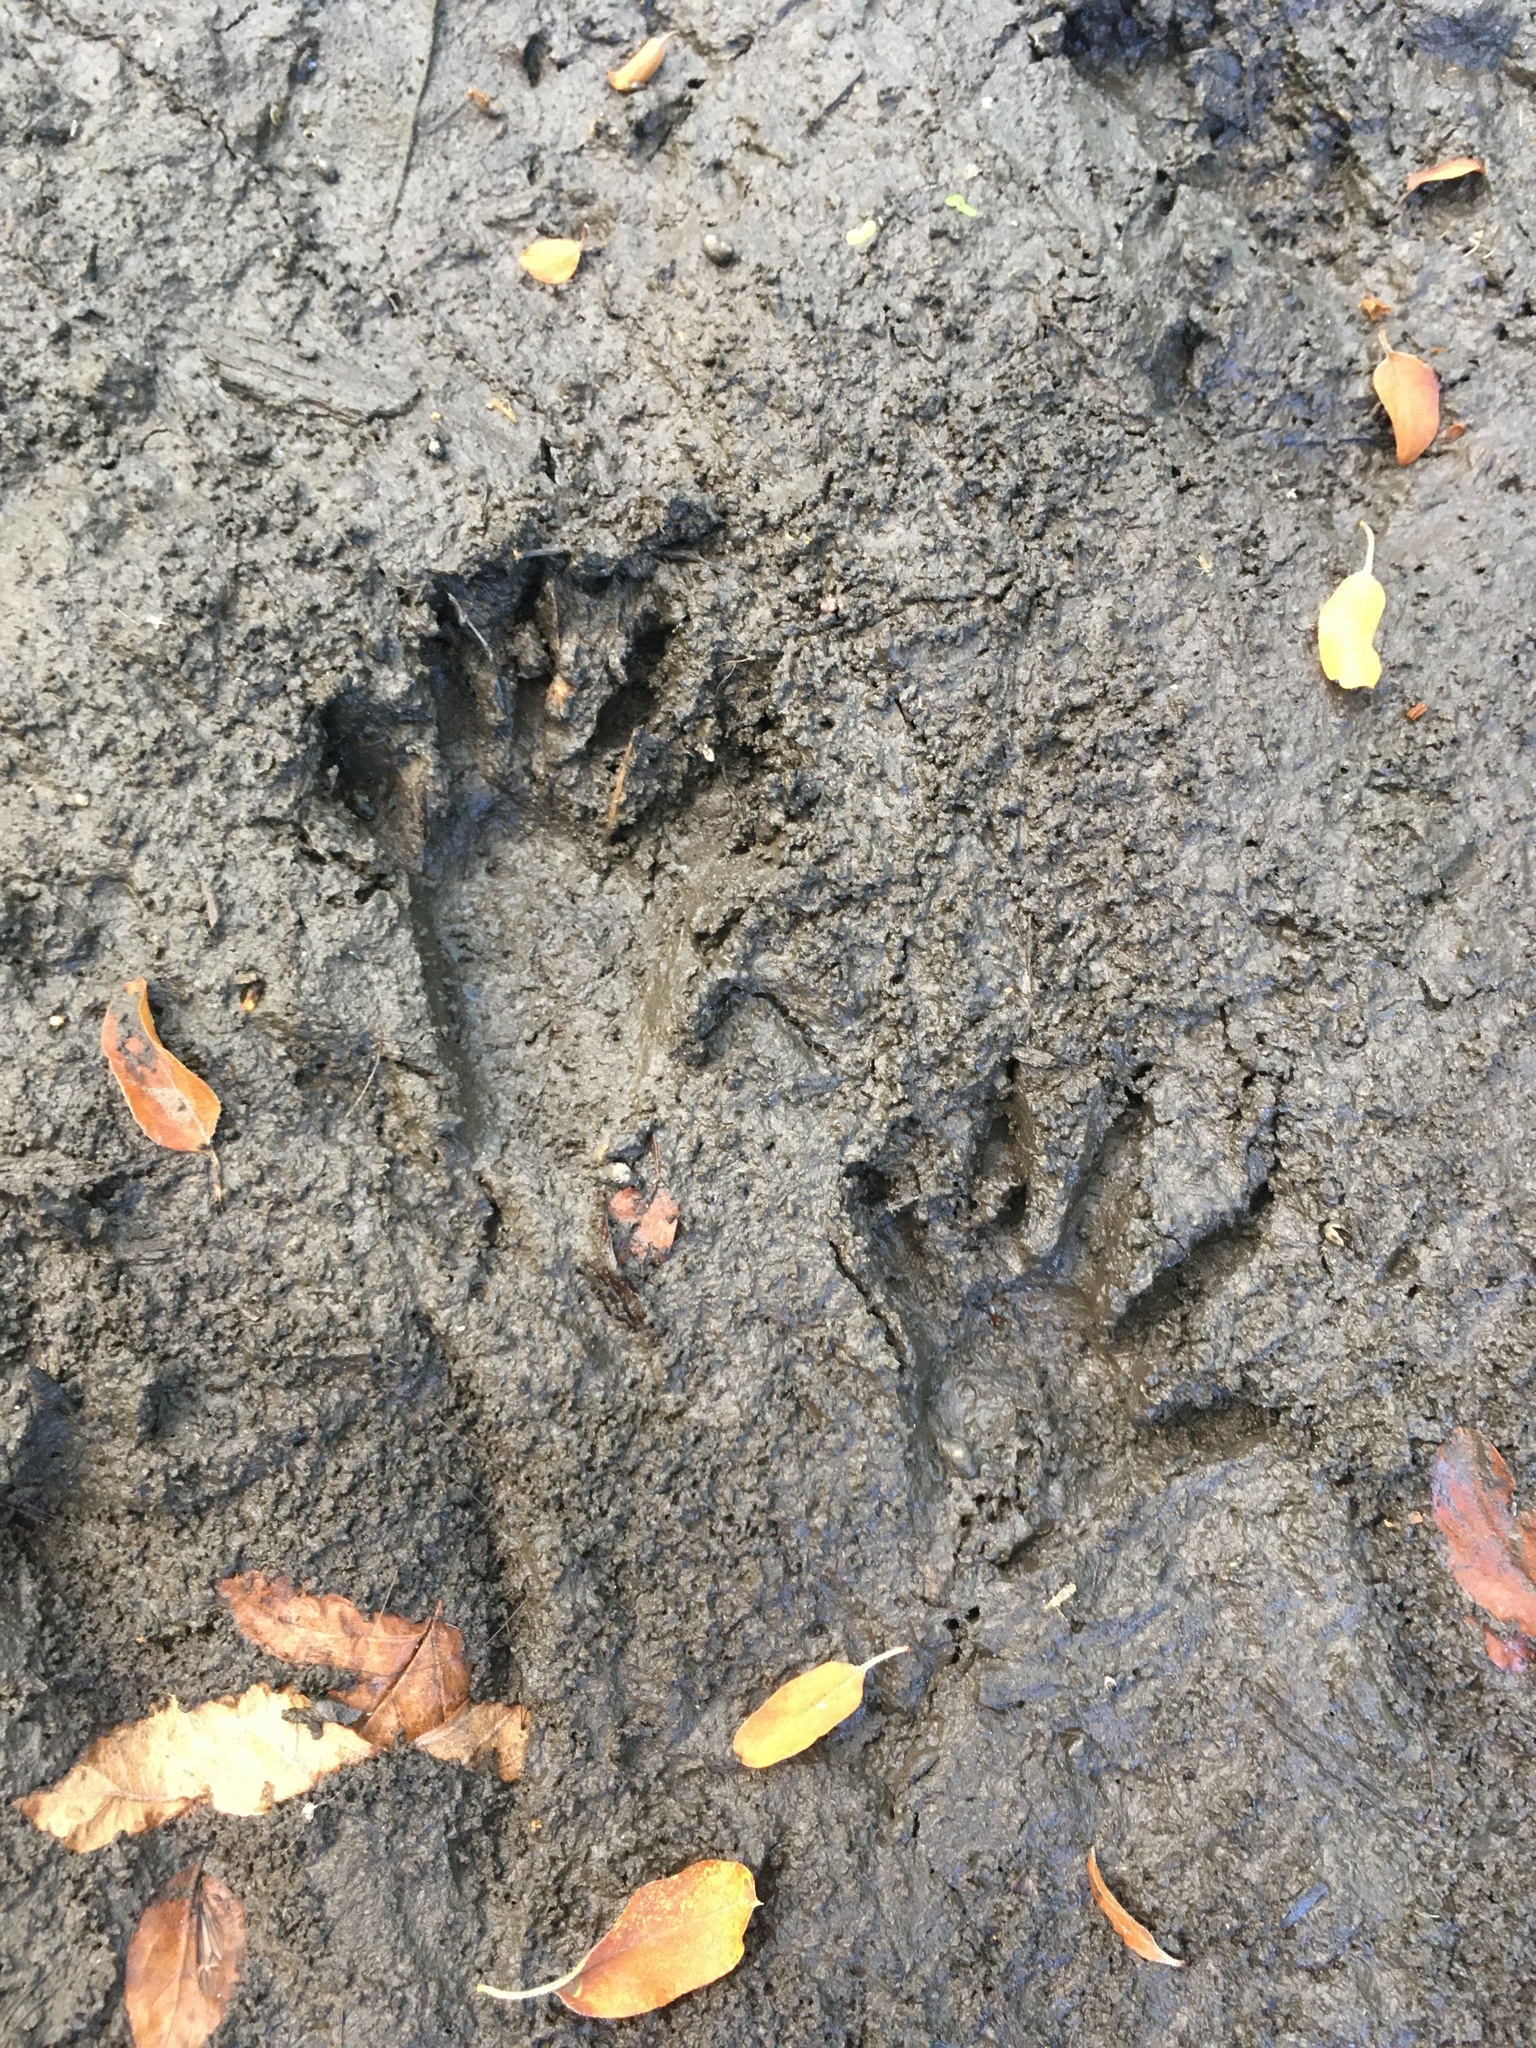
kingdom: Animalia
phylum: Chordata
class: Mammalia
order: Carnivora
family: Procyonidae
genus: Procyon
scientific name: Procyon lotor
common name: Raccoon
